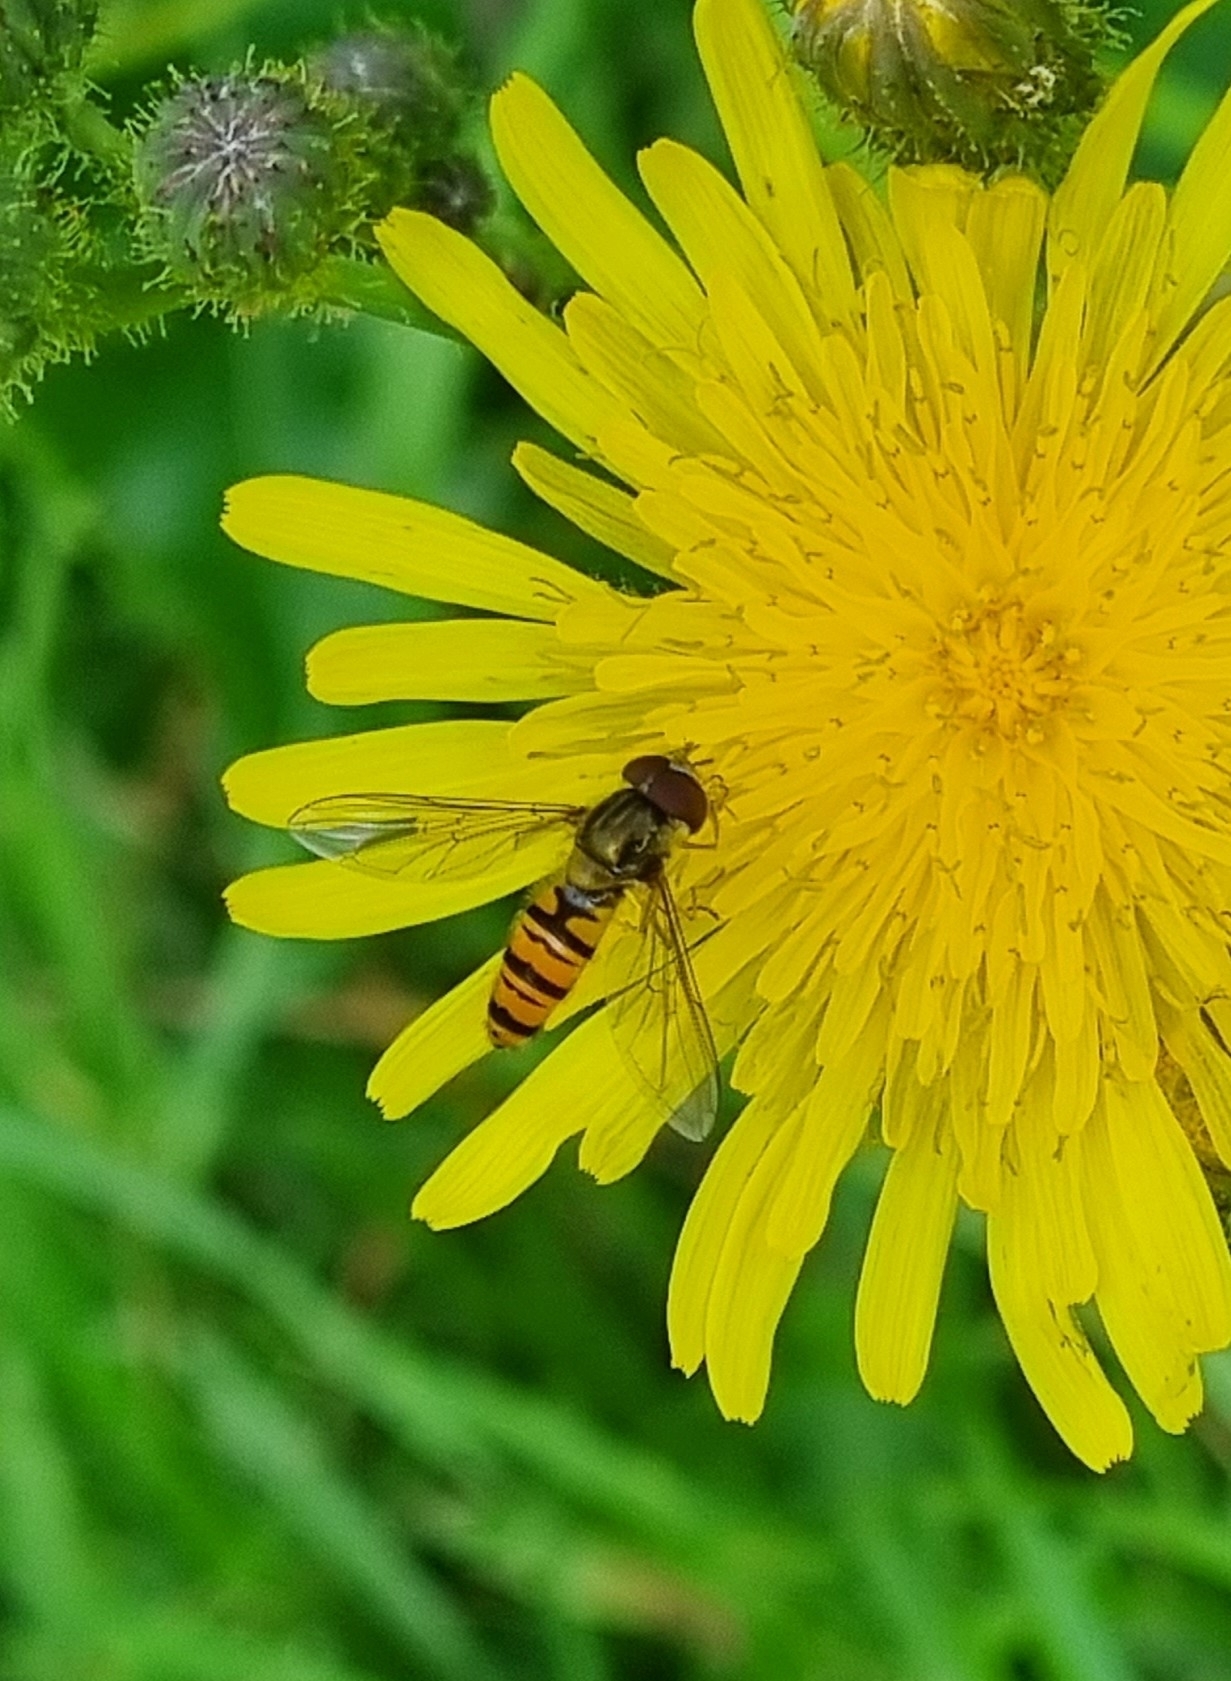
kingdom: Animalia
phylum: Arthropoda
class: Insecta
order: Diptera
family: Syrphidae
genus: Episyrphus
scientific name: Episyrphus balteatus
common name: Marmalade hoverfly
